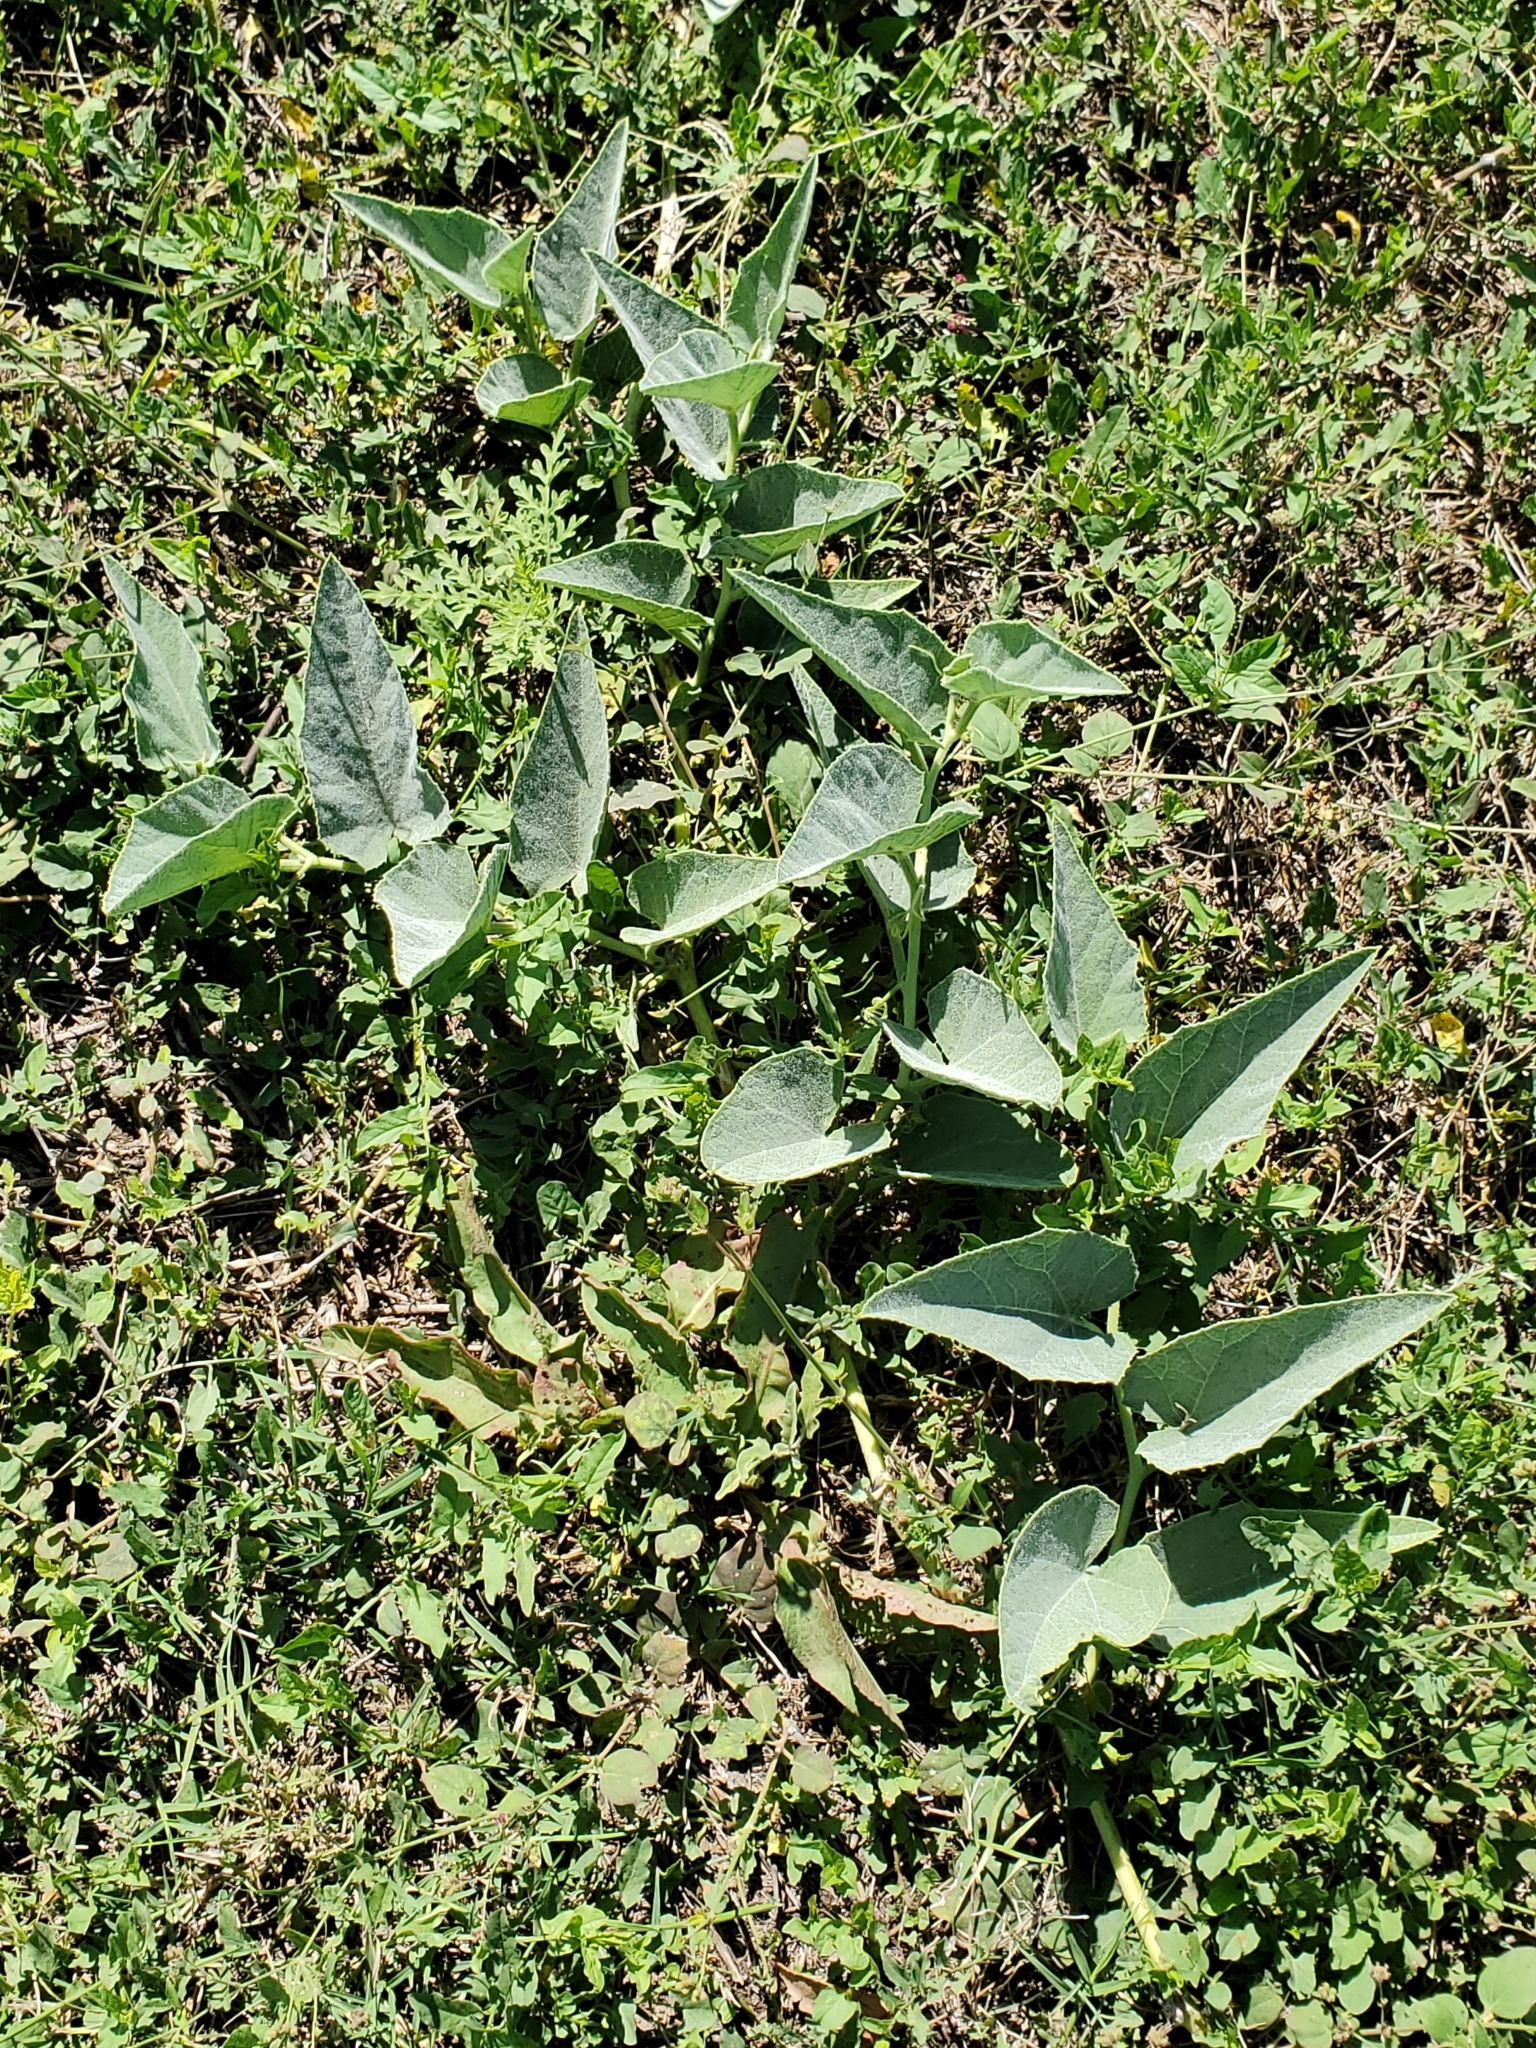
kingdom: Plantae
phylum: Tracheophyta
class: Magnoliopsida
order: Cucurbitales
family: Cucurbitaceae
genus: Cucurbita
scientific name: Cucurbita foetidissima
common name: Buffalo gourd
